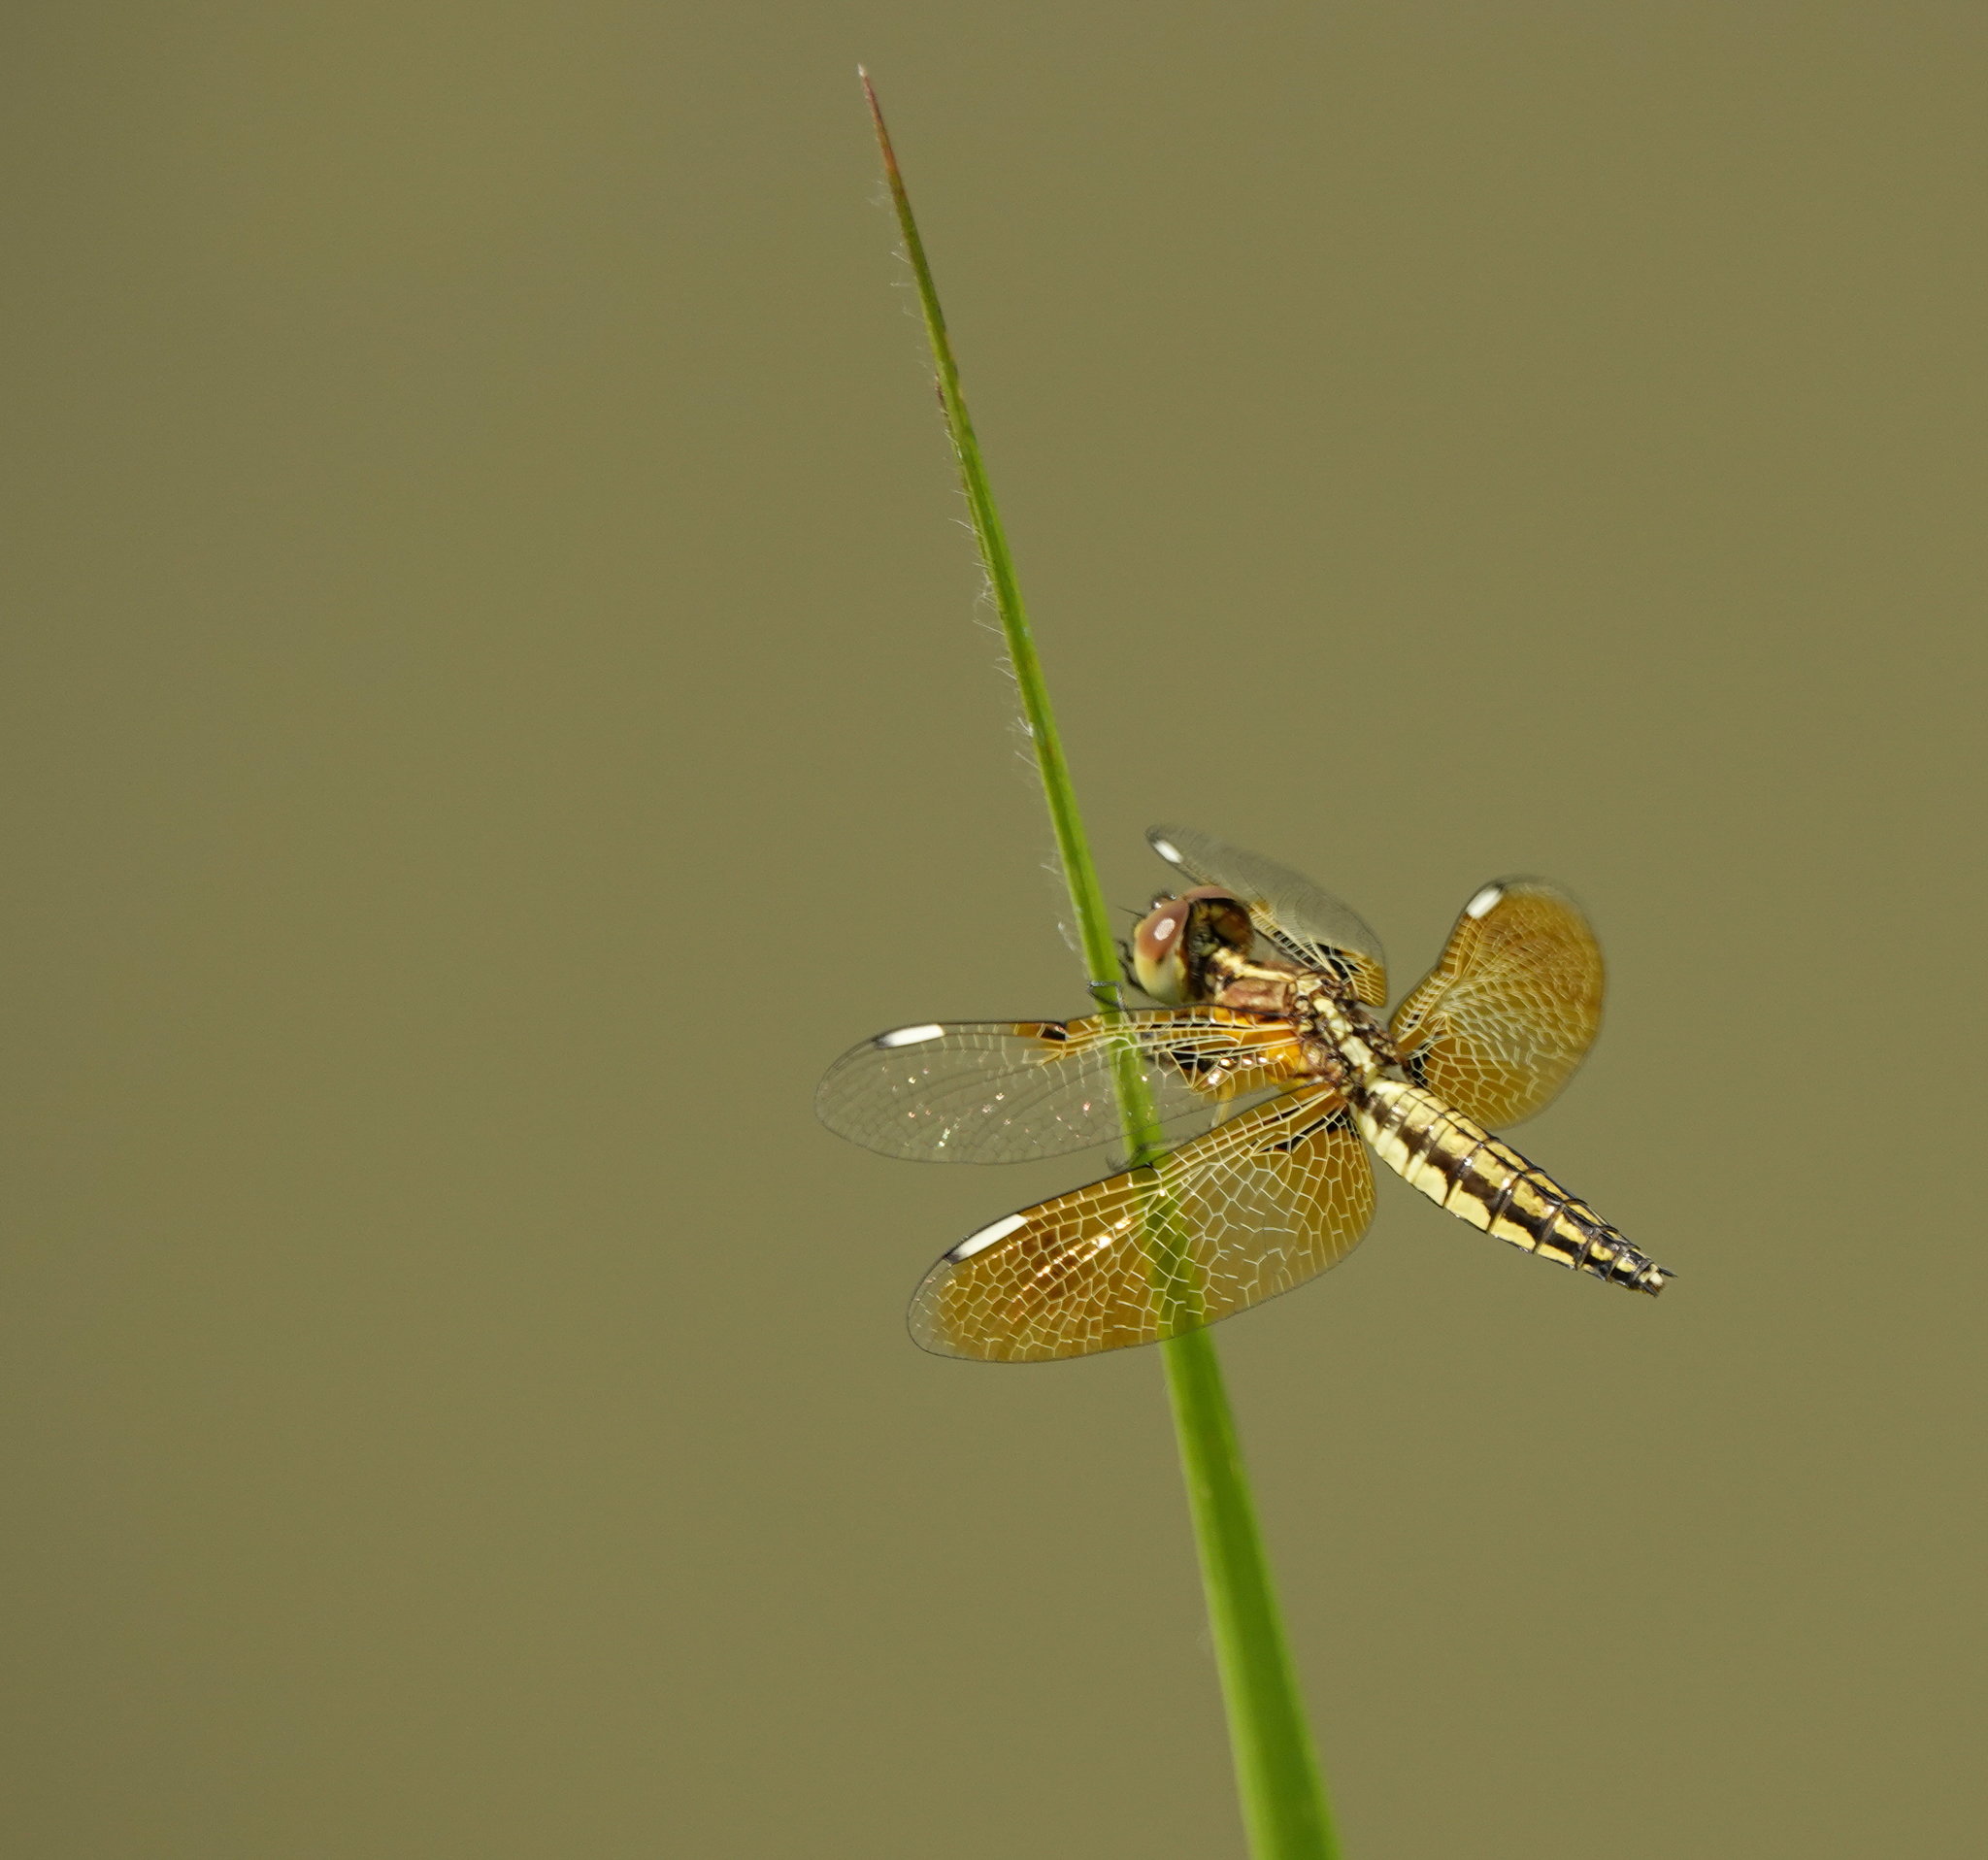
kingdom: Animalia
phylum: Arthropoda
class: Insecta
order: Odonata
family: Libellulidae
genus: Palpopleura
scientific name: Palpopleura sexmaculata
